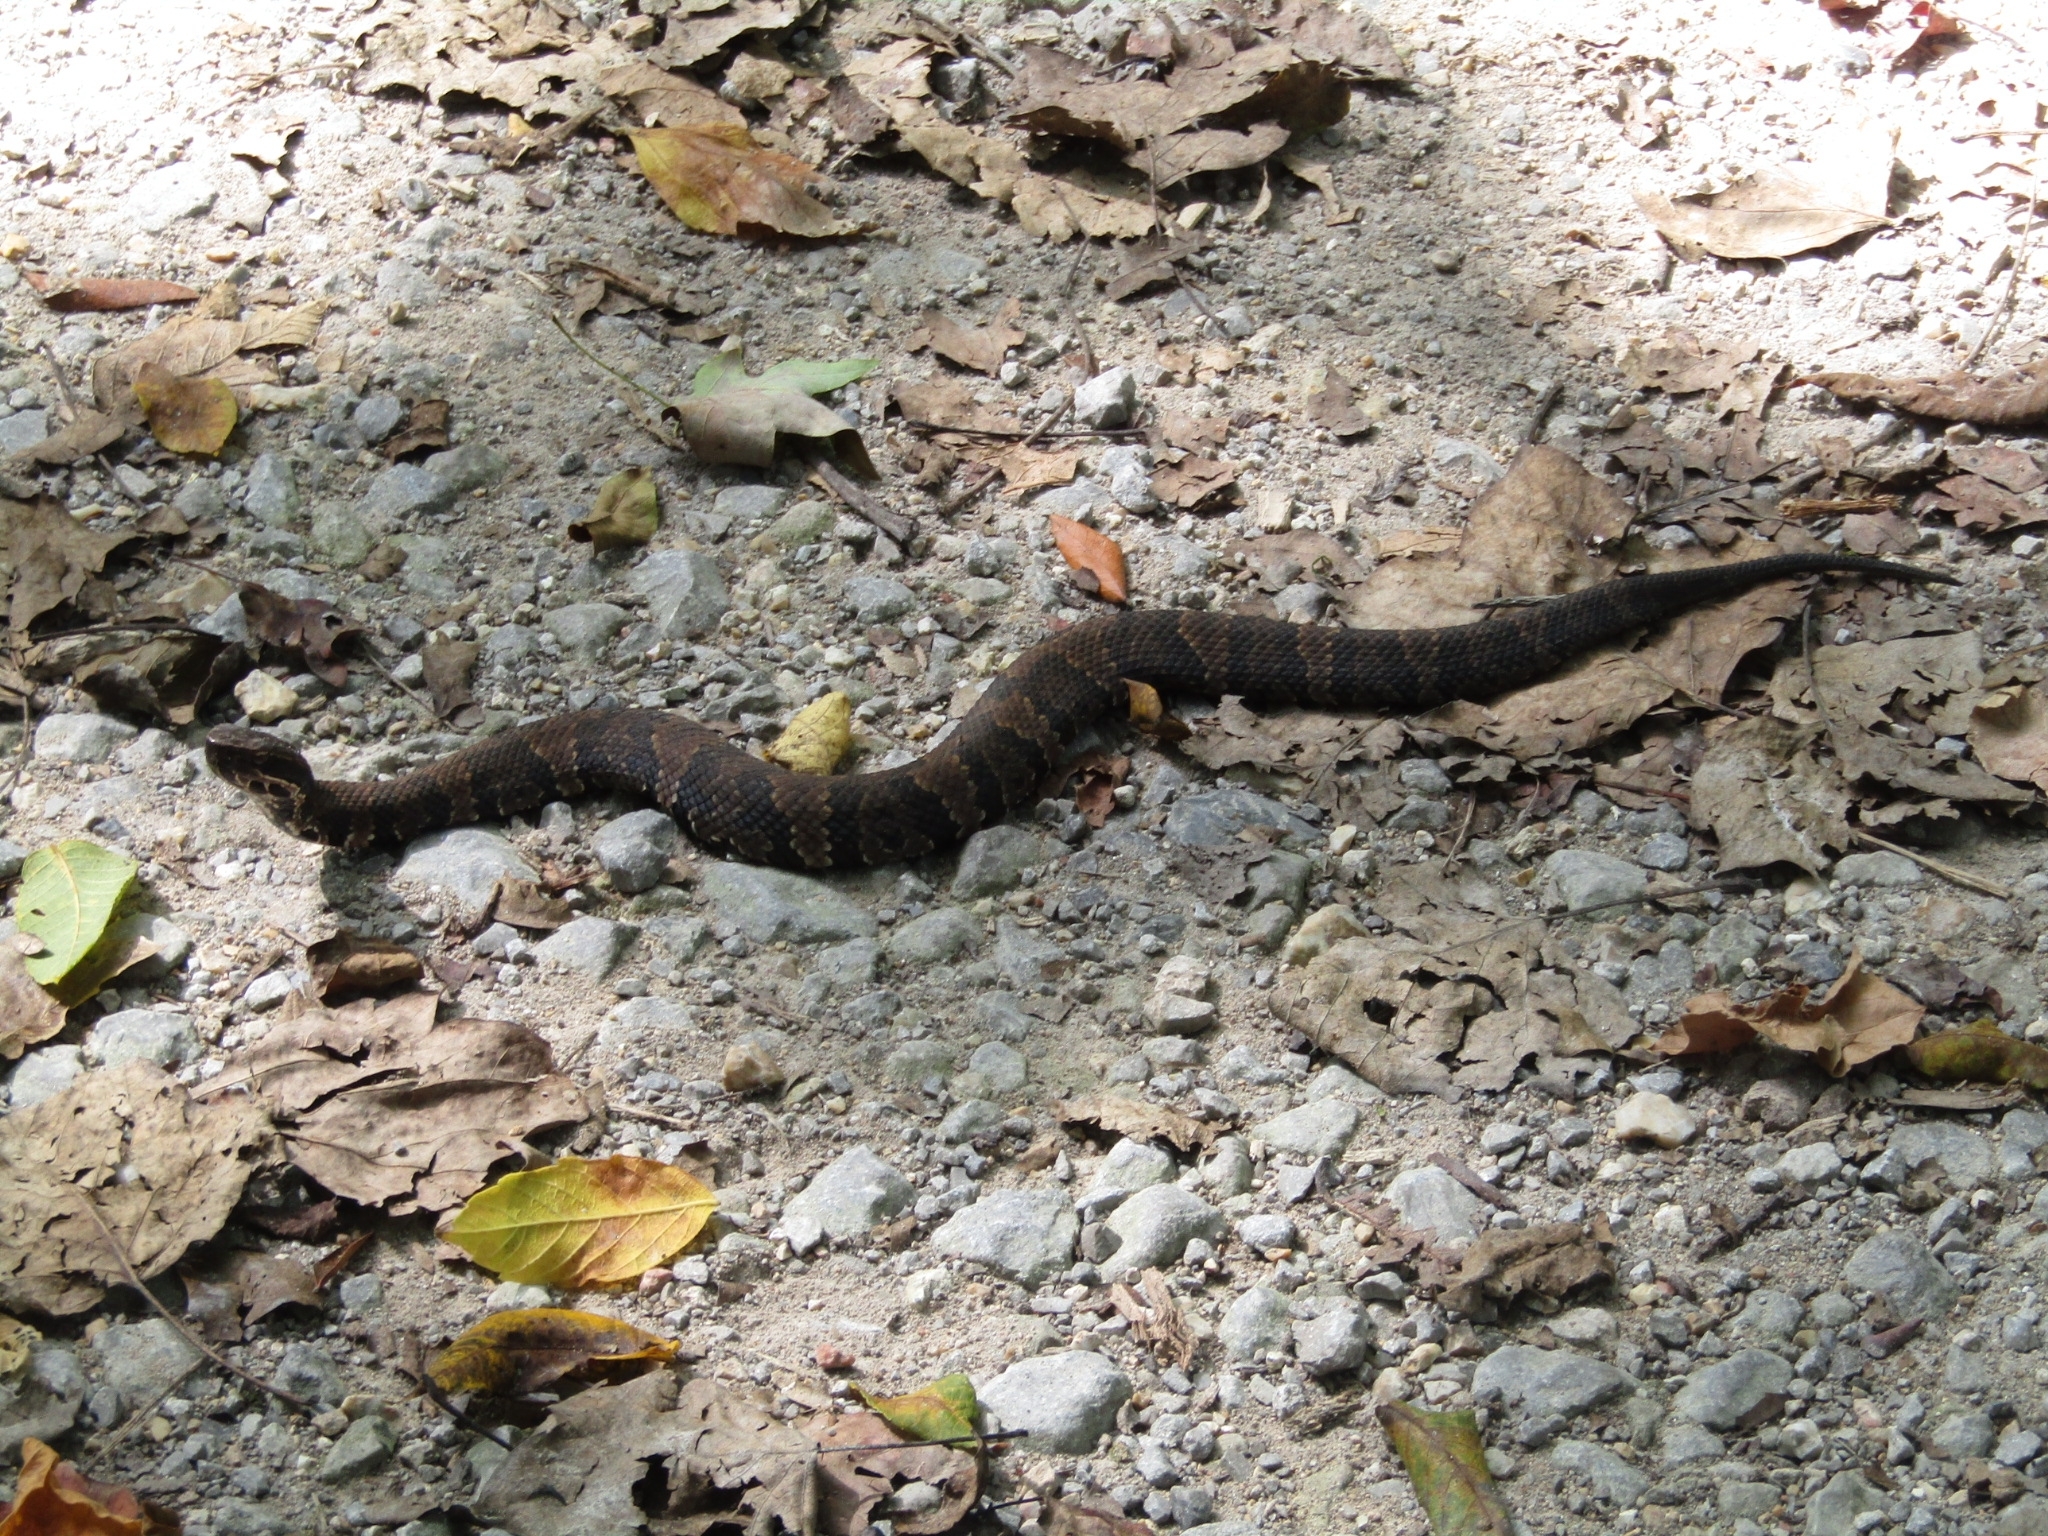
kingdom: Animalia
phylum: Chordata
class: Squamata
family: Viperidae
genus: Agkistrodon
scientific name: Agkistrodon piscivorus
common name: Cottonmouth
